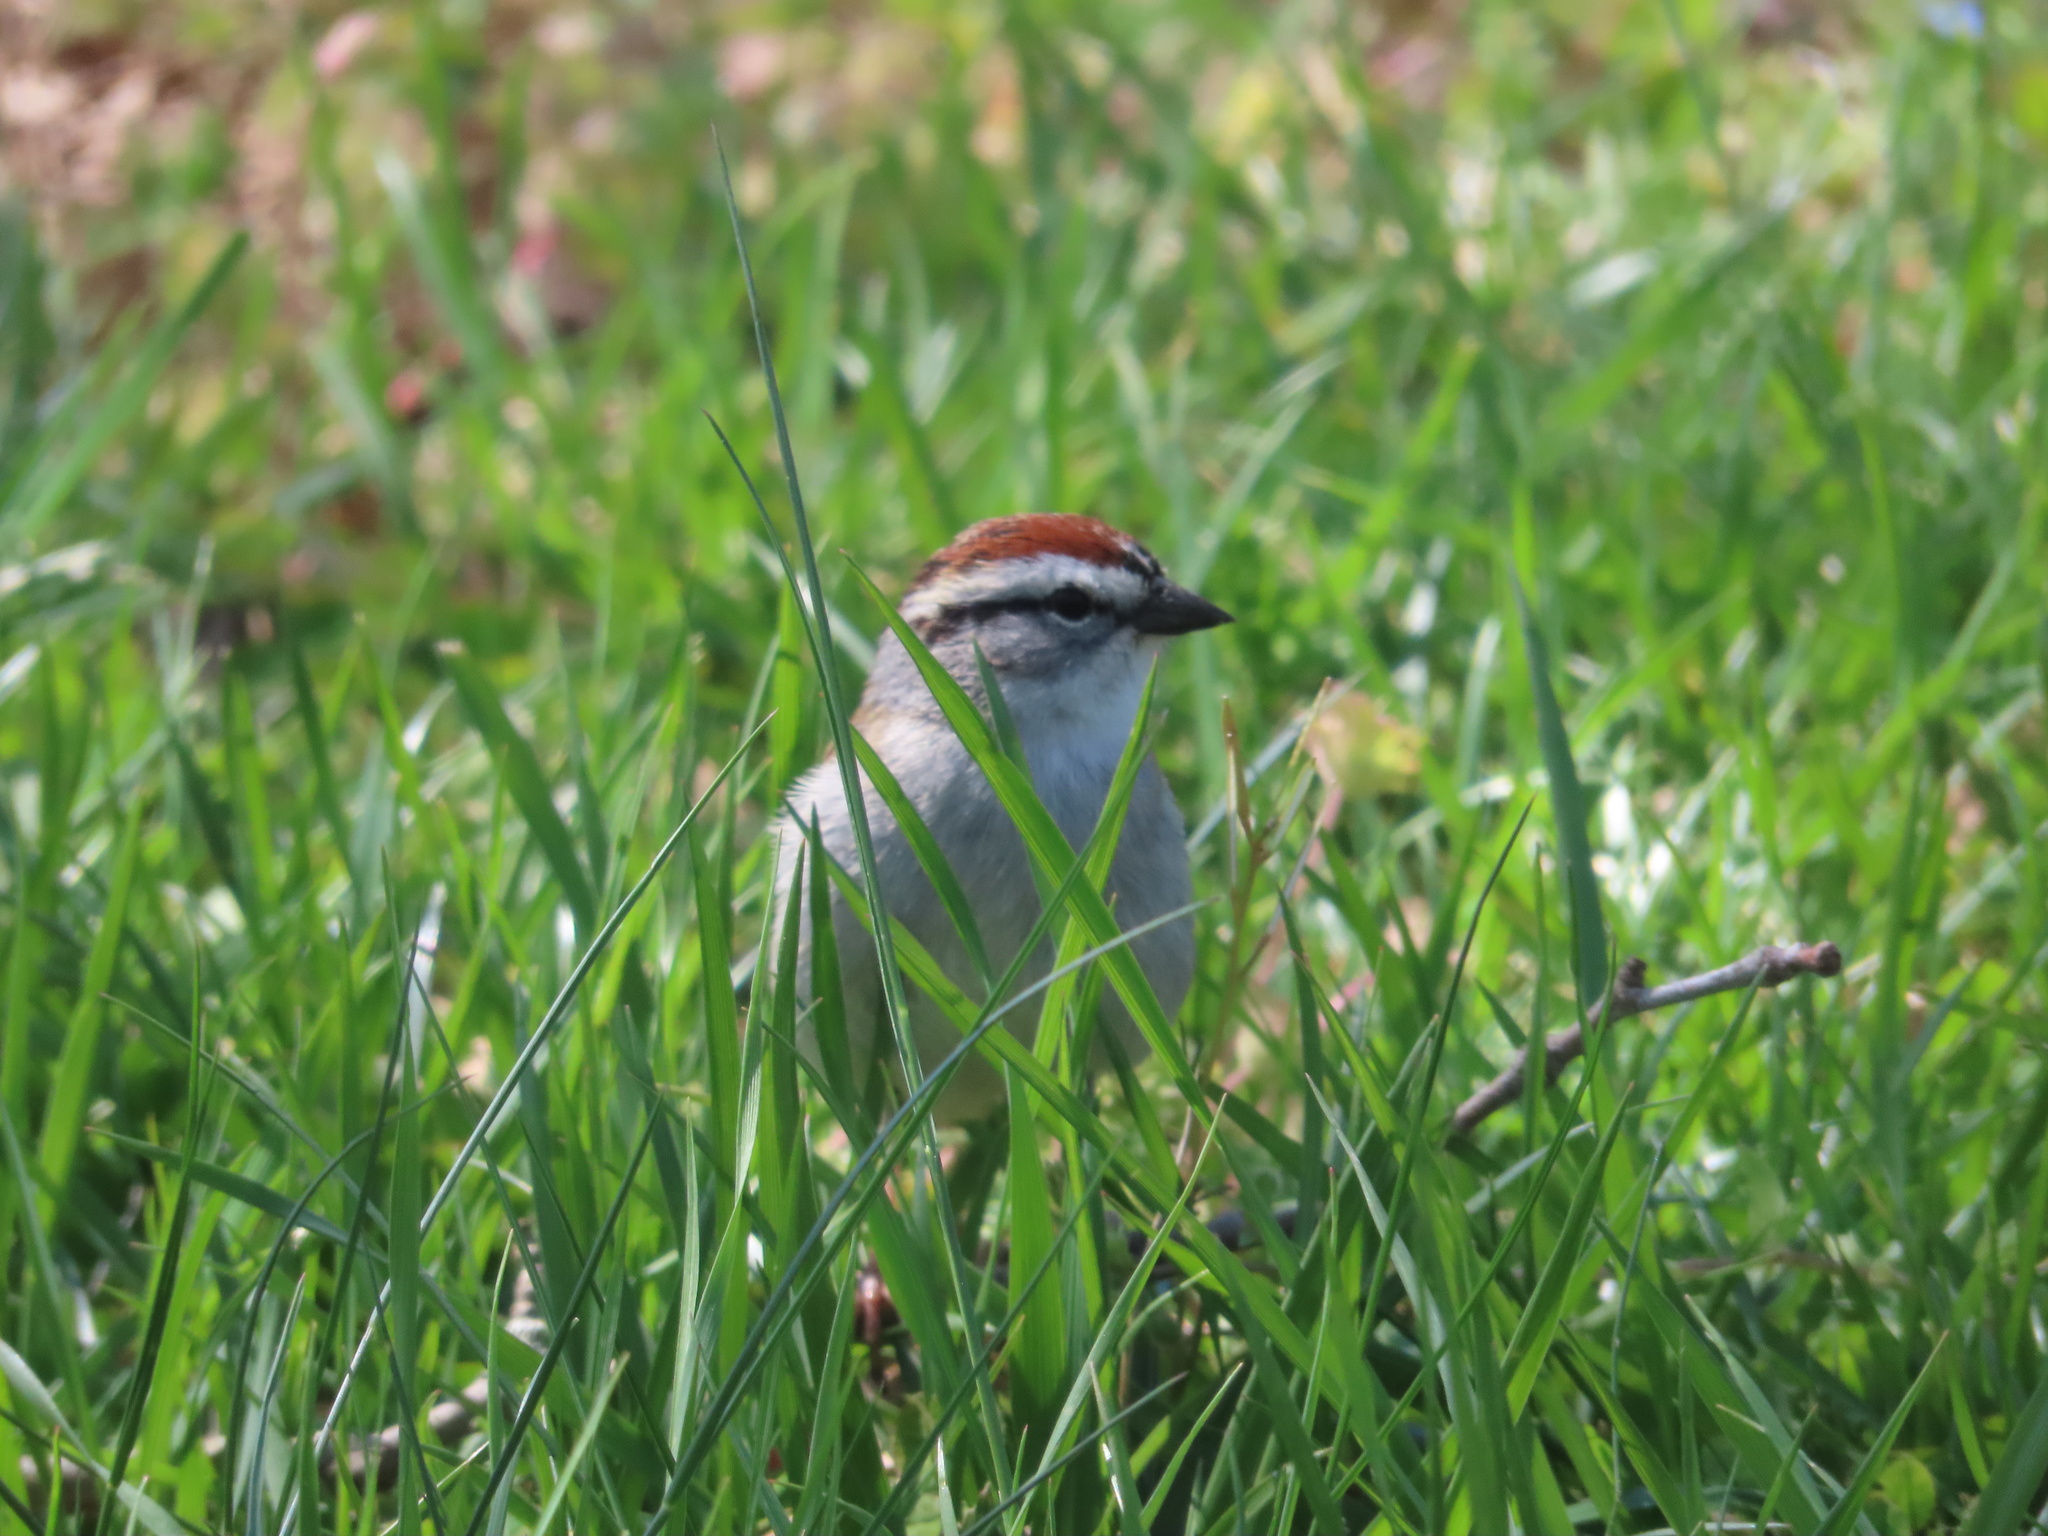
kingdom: Animalia
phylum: Chordata
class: Aves
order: Passeriformes
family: Passerellidae
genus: Spizella
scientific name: Spizella passerina
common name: Chipping sparrow
